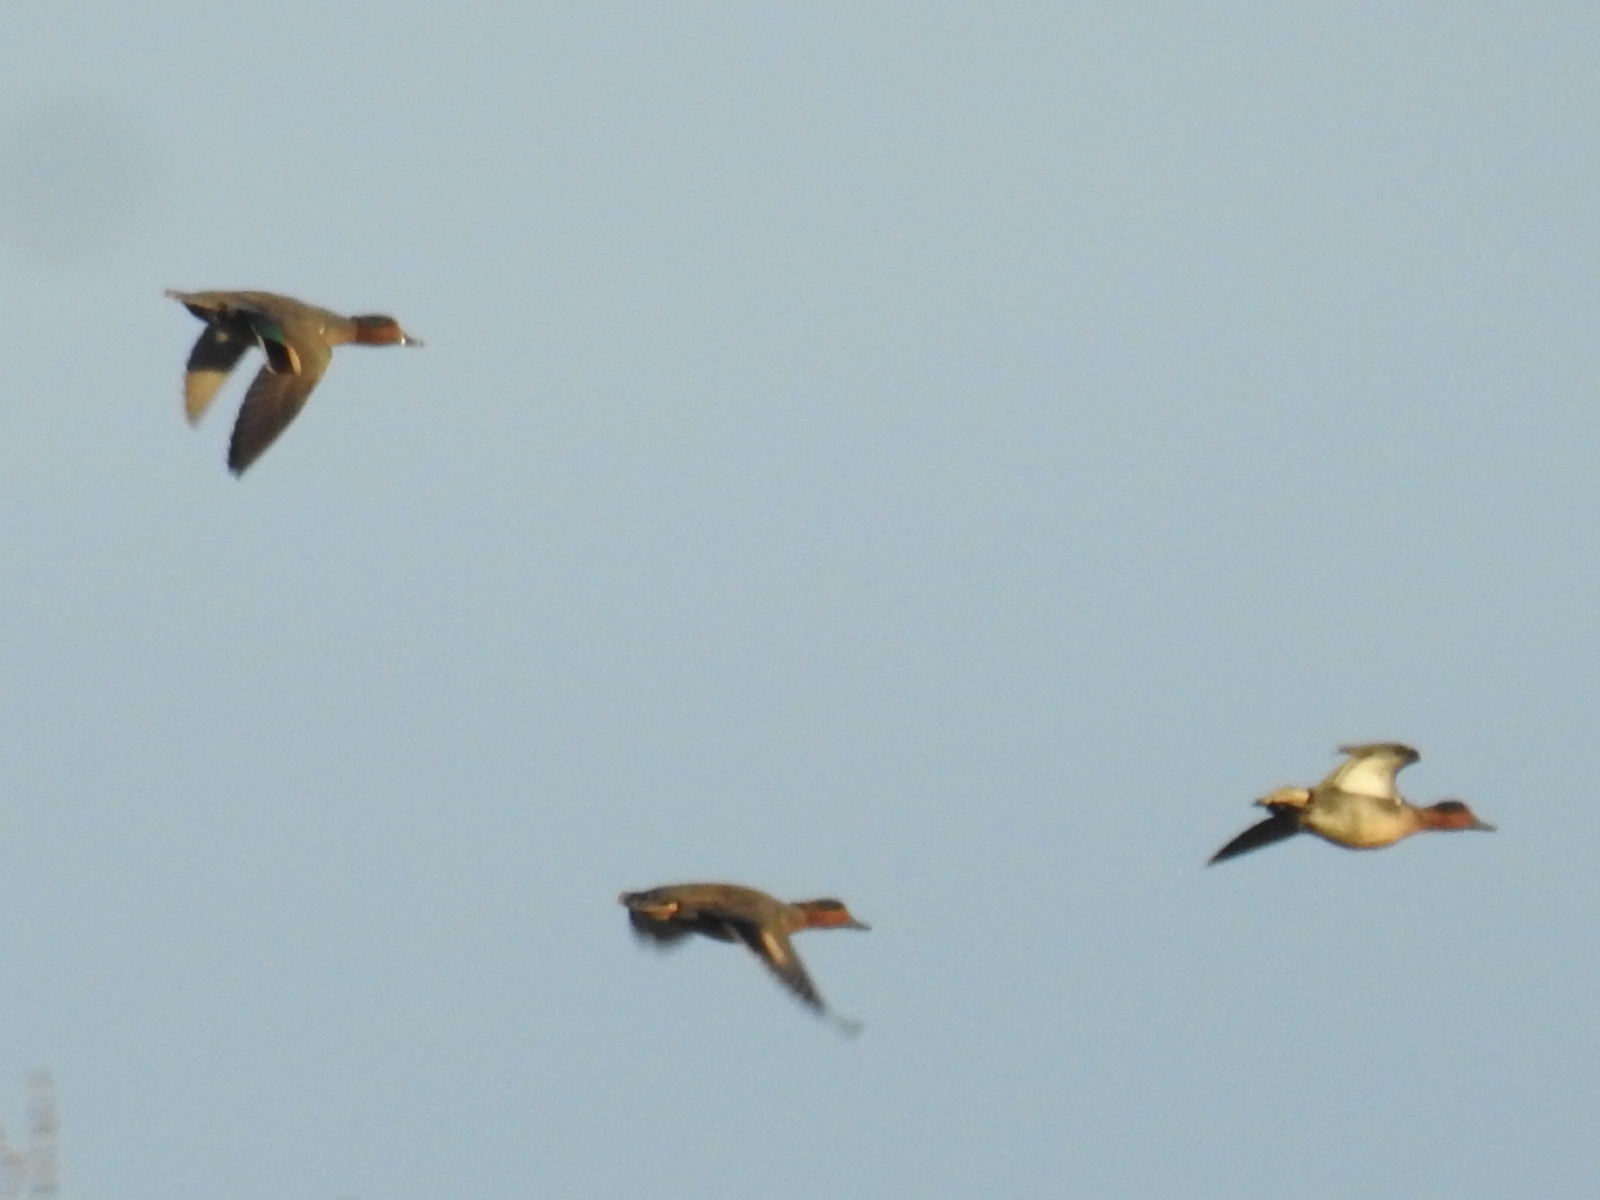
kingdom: Animalia
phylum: Chordata
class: Aves
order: Anseriformes
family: Anatidae
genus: Anas
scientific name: Anas crecca
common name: Eurasian teal
